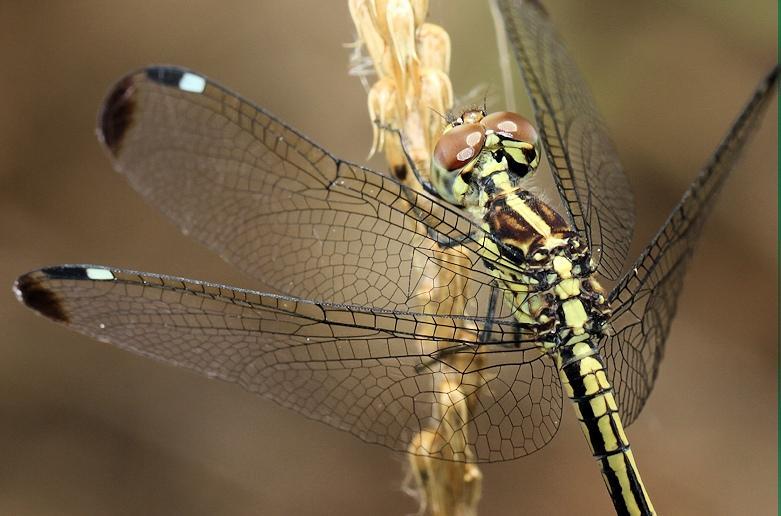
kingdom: Animalia
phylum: Arthropoda
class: Insecta
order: Odonata
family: Libellulidae
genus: Hemistigma
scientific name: Hemistigma albipunctum
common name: African pied-spot
